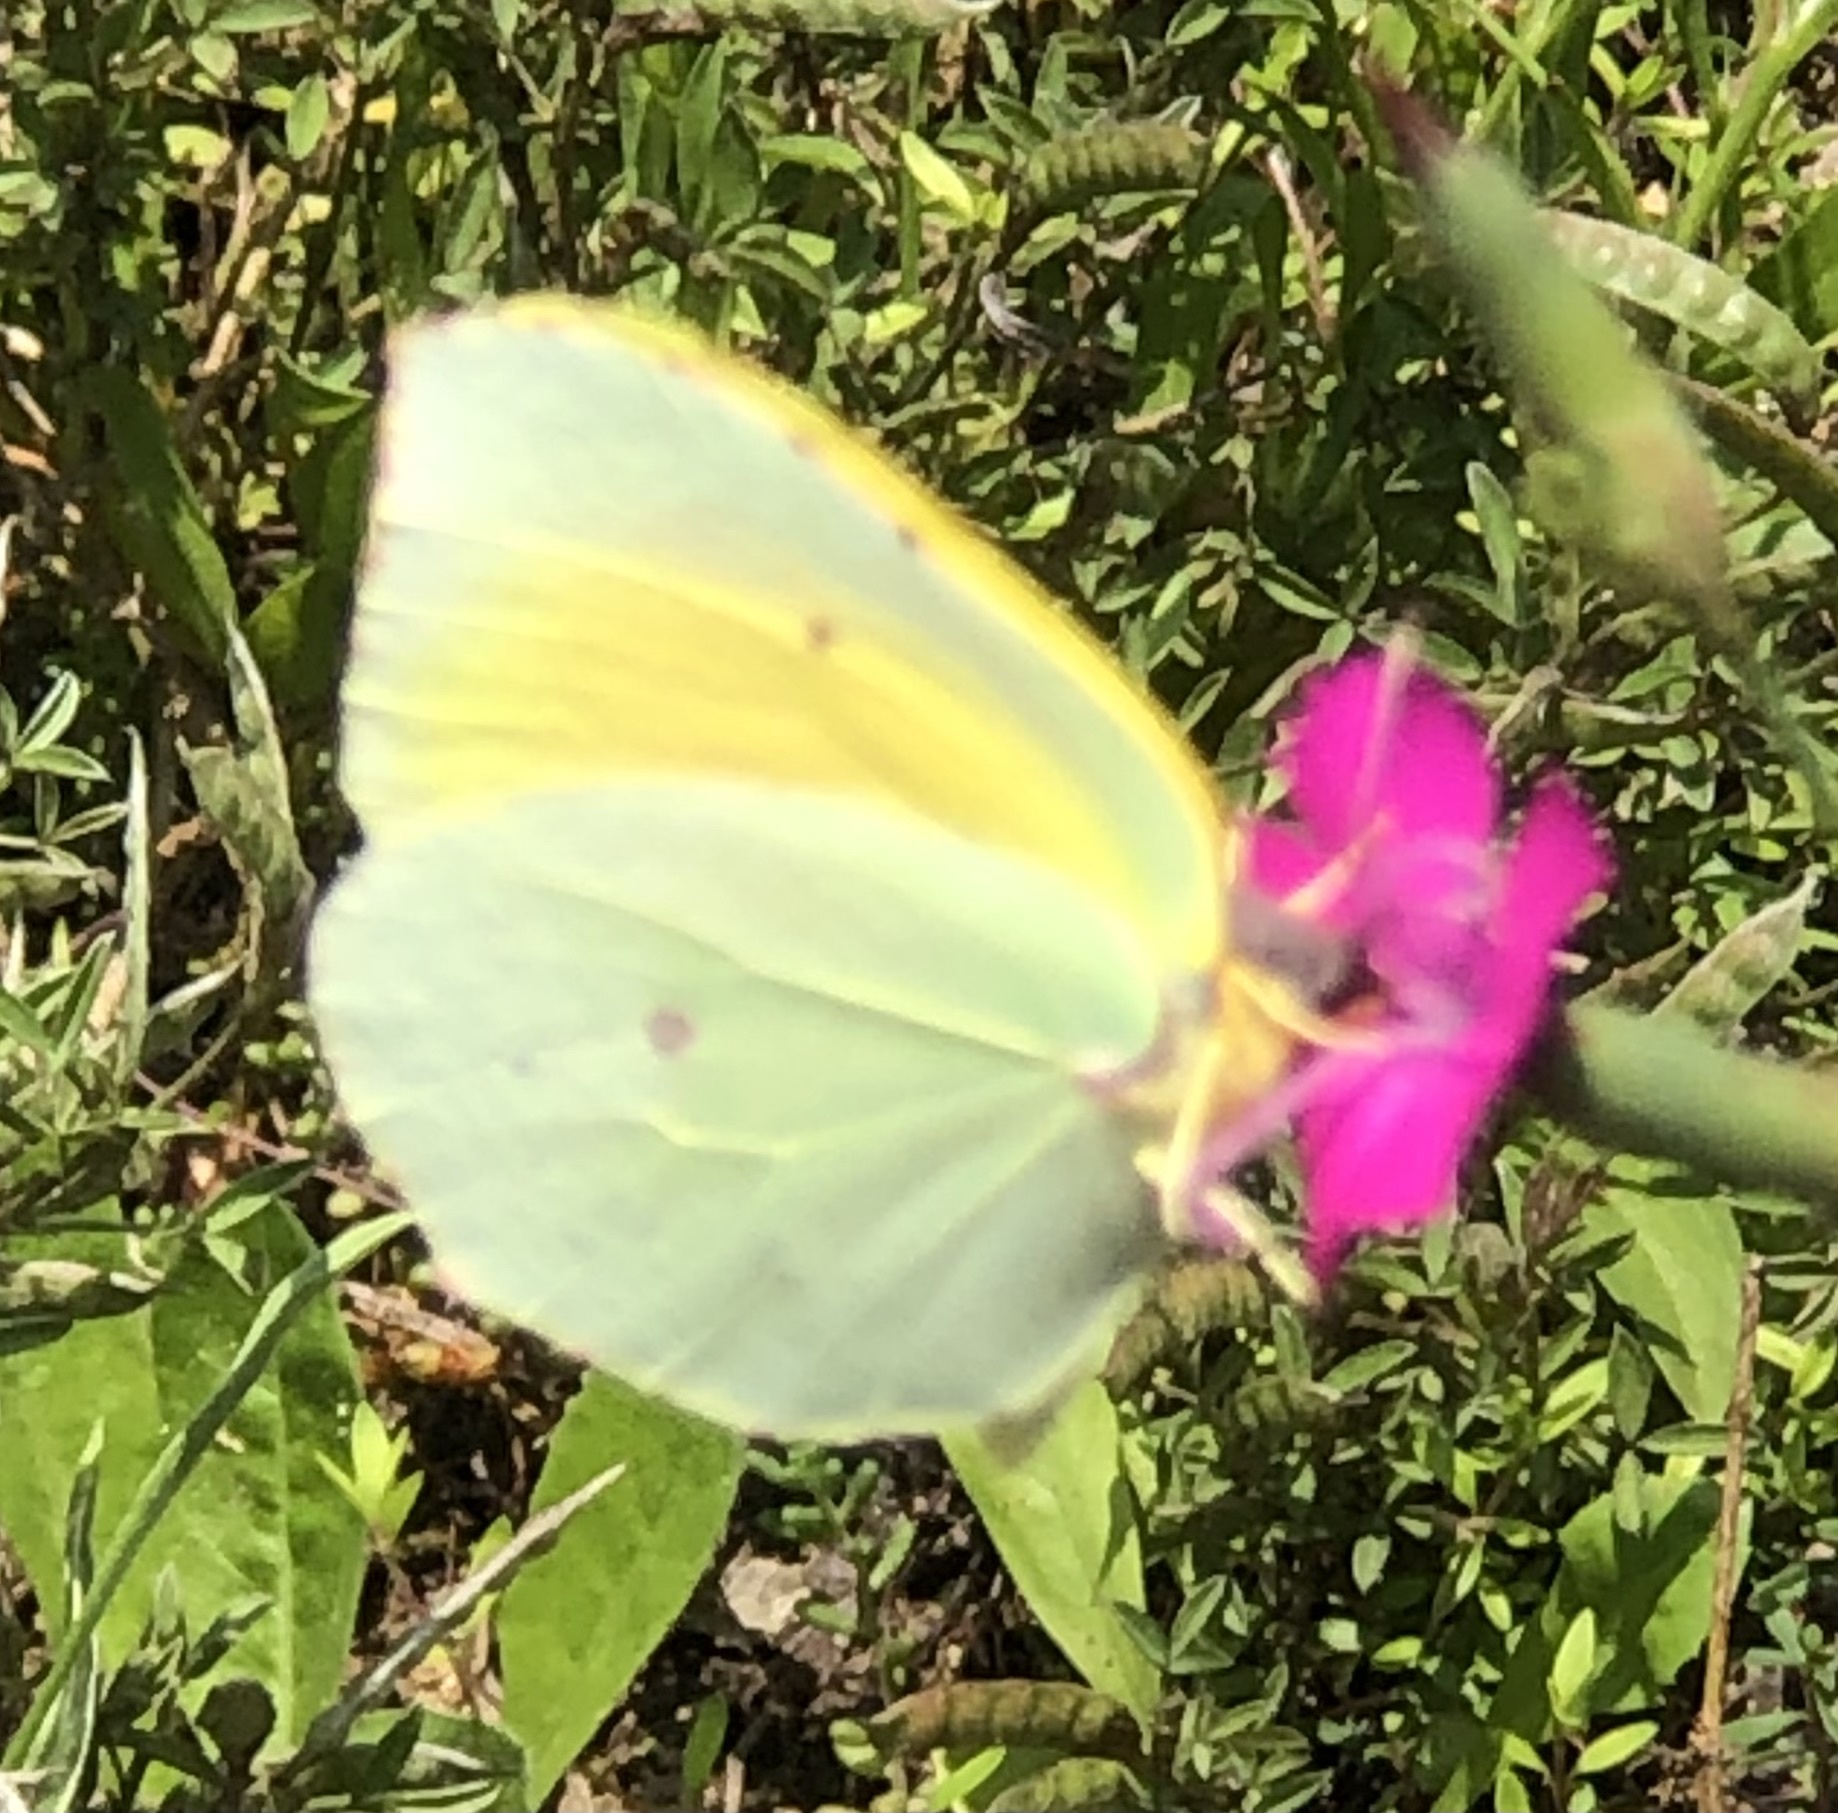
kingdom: Animalia
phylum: Arthropoda
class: Insecta
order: Lepidoptera
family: Pieridae
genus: Gonepteryx
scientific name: Gonepteryx cleopatra
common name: Cleopatra
